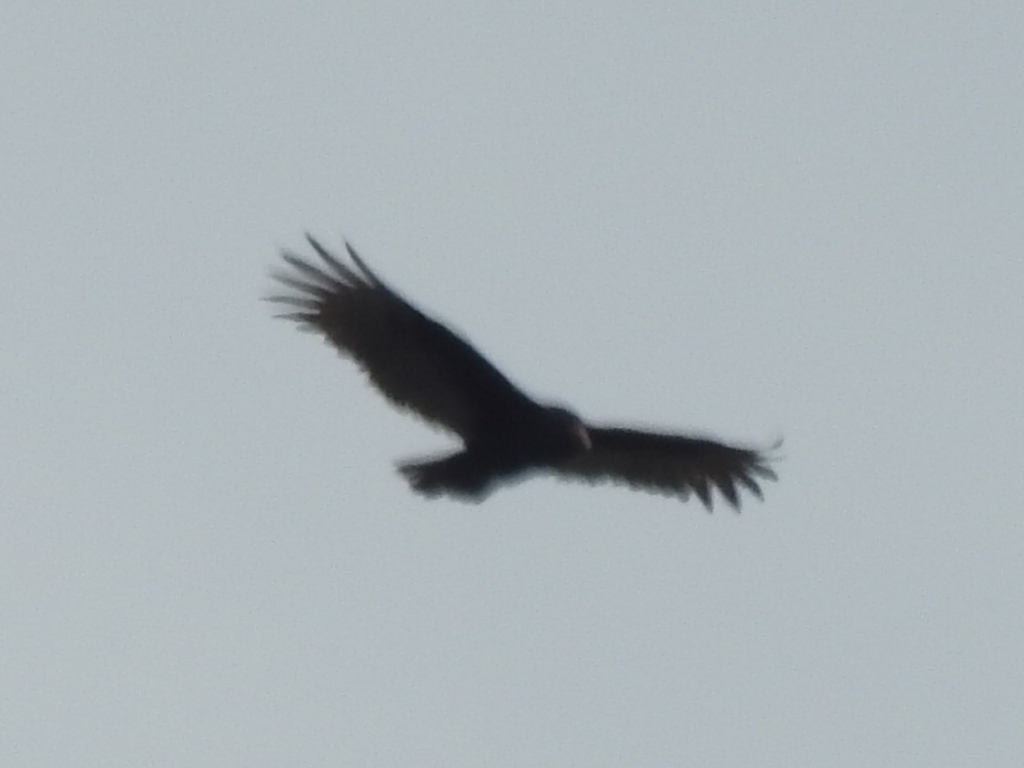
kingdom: Animalia
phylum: Chordata
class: Aves
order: Accipitriformes
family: Cathartidae
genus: Cathartes
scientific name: Cathartes aura
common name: Turkey vulture
